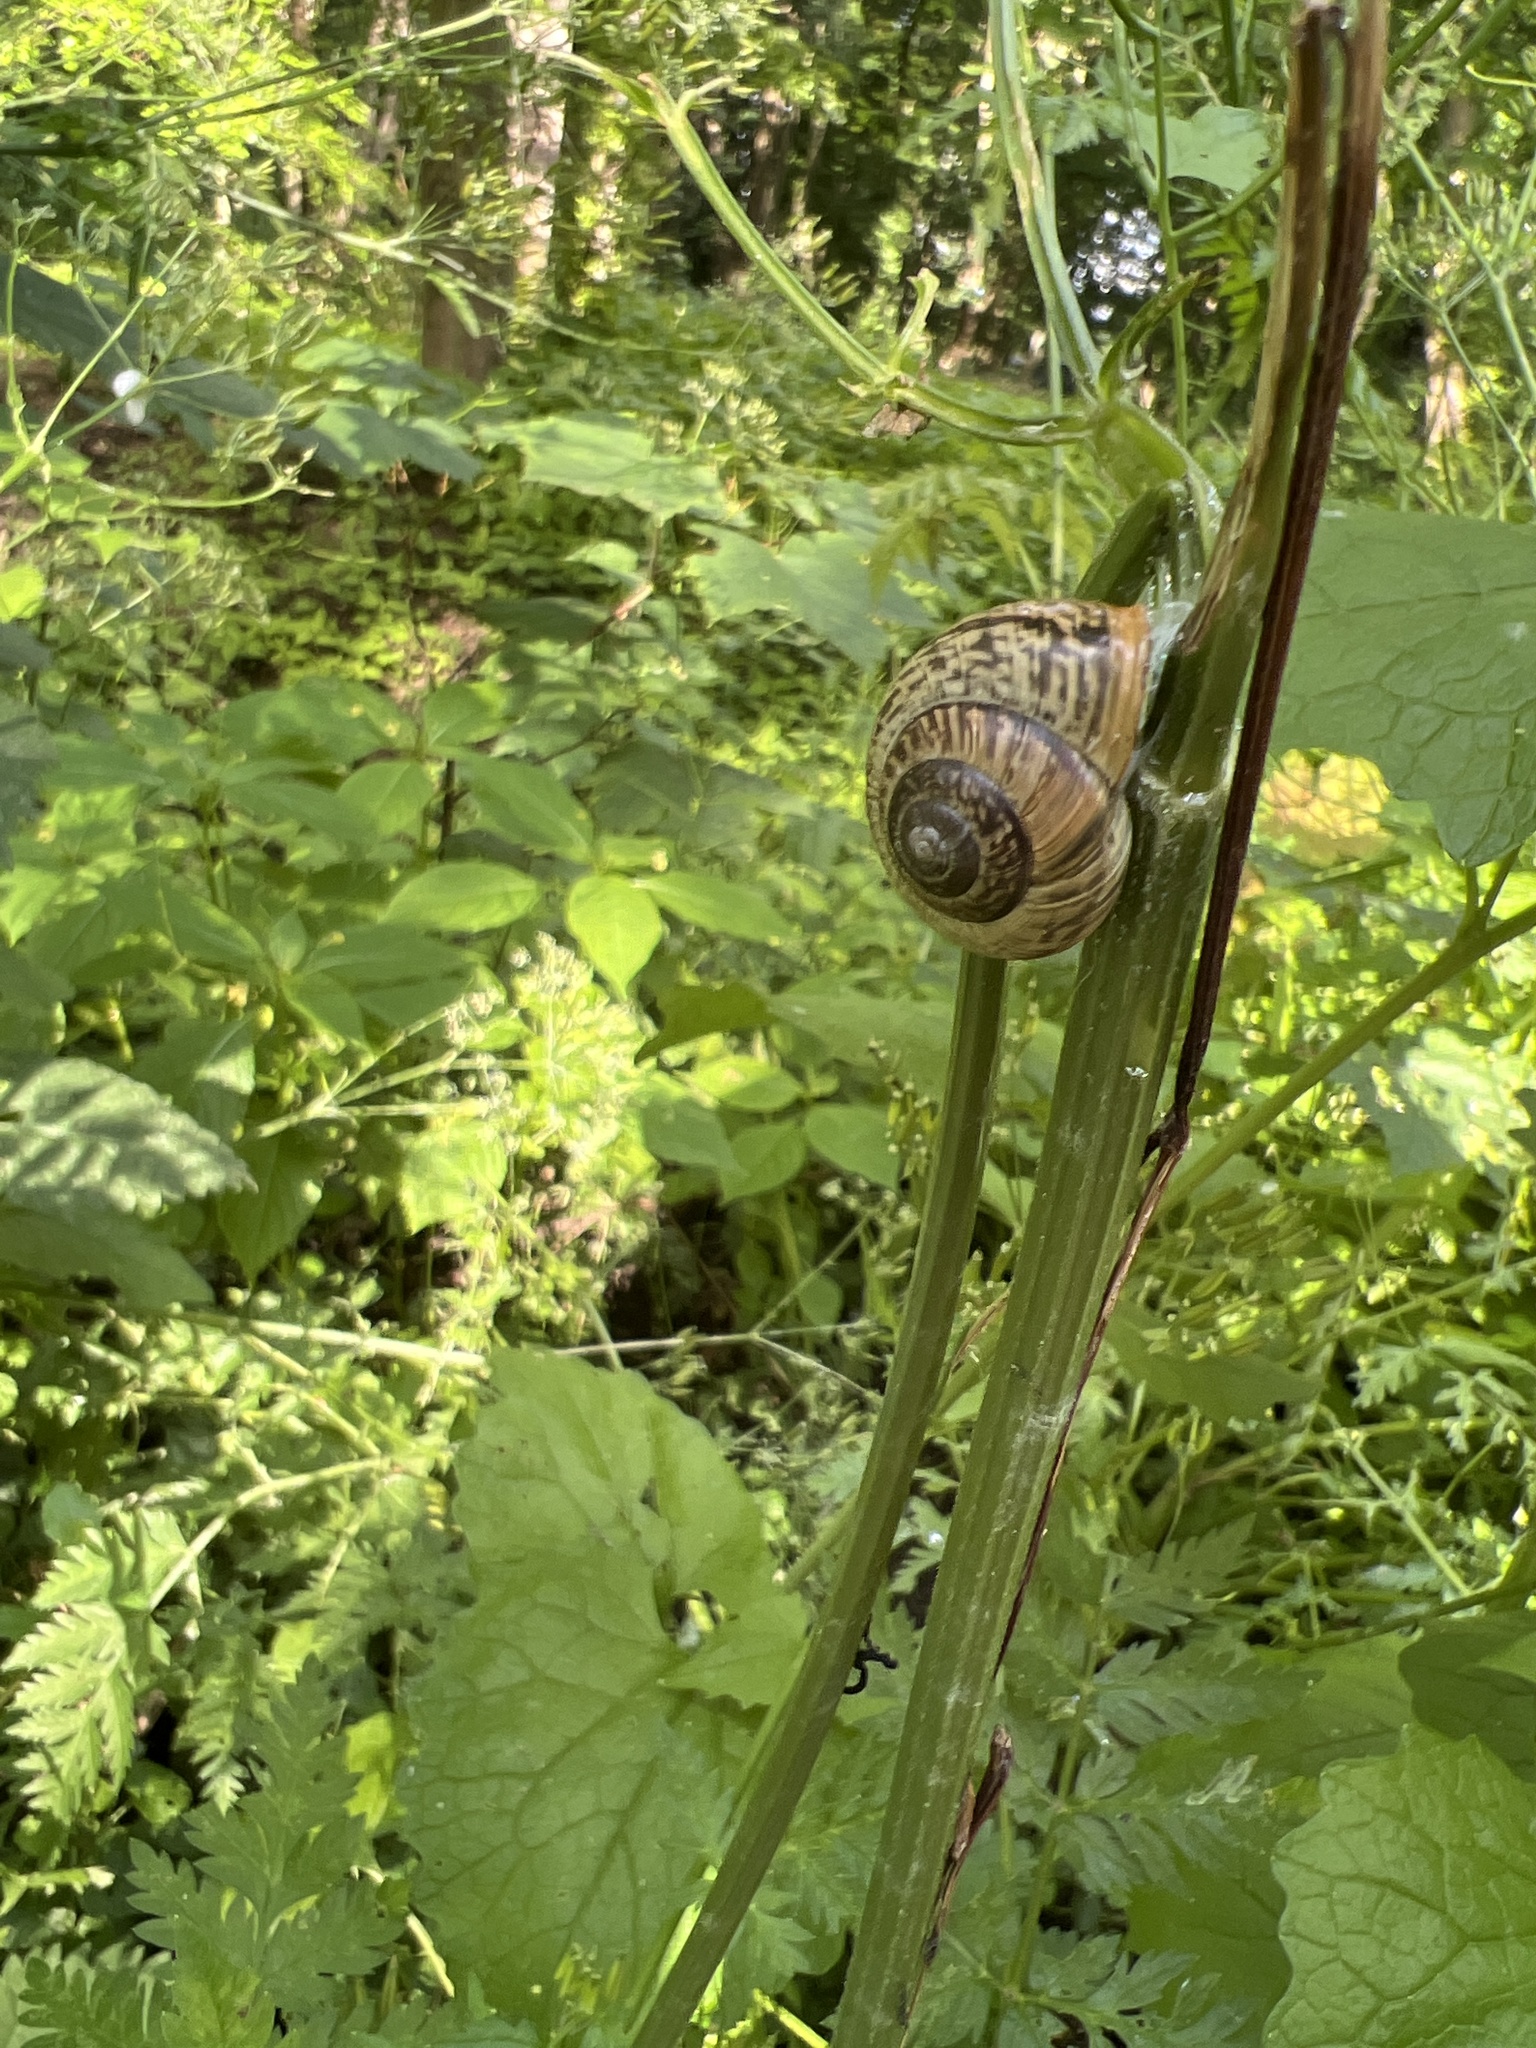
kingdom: Animalia
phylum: Mollusca
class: Gastropoda
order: Stylommatophora
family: Helicidae
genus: Arianta
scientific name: Arianta arbustorum
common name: Copse snail
